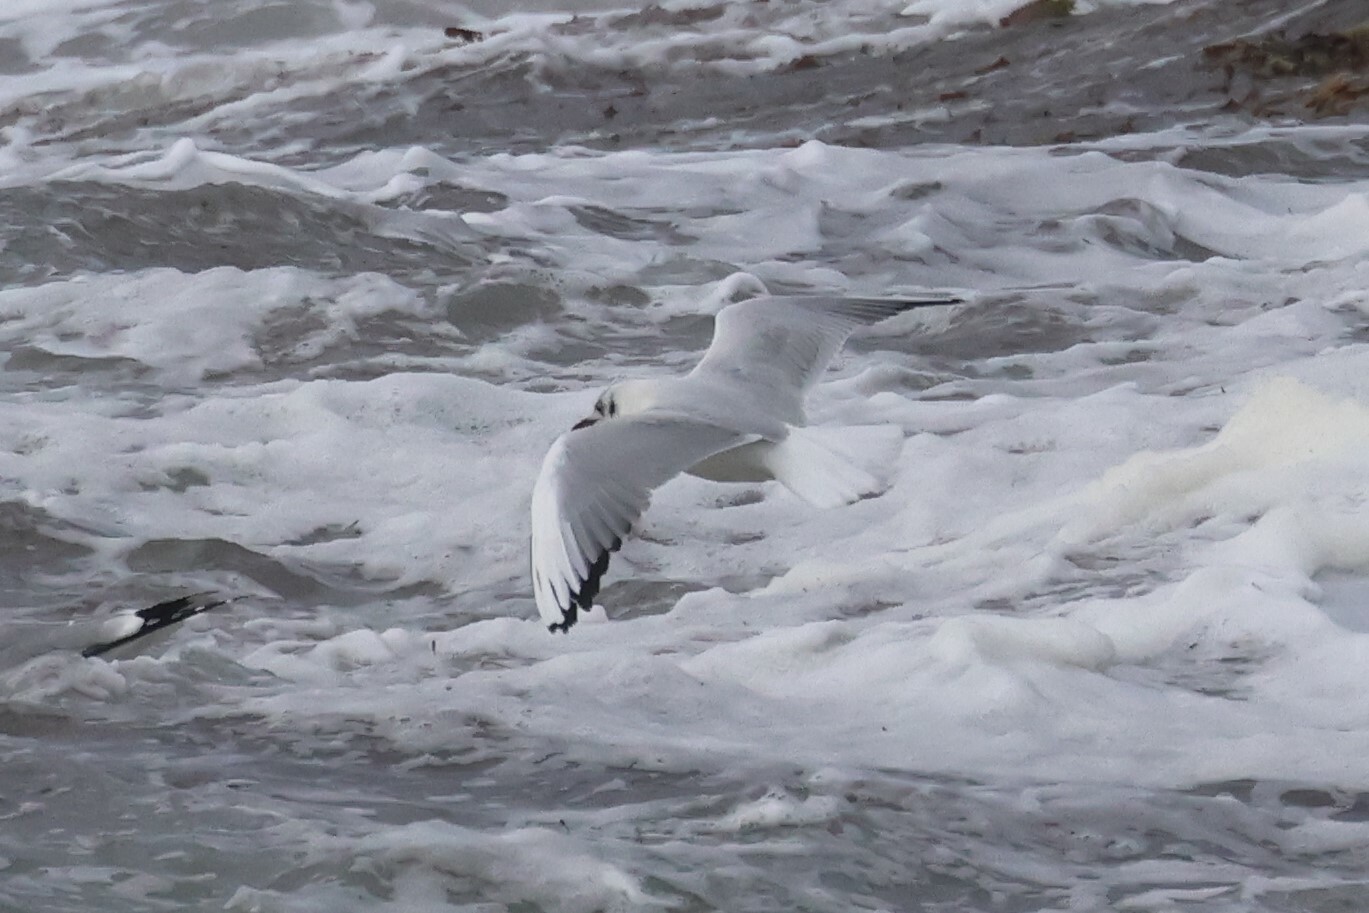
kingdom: Animalia
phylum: Chordata
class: Aves
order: Charadriiformes
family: Laridae
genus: Chroicocephalus
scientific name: Chroicocephalus philadelphia
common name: Bonaparte's gull
